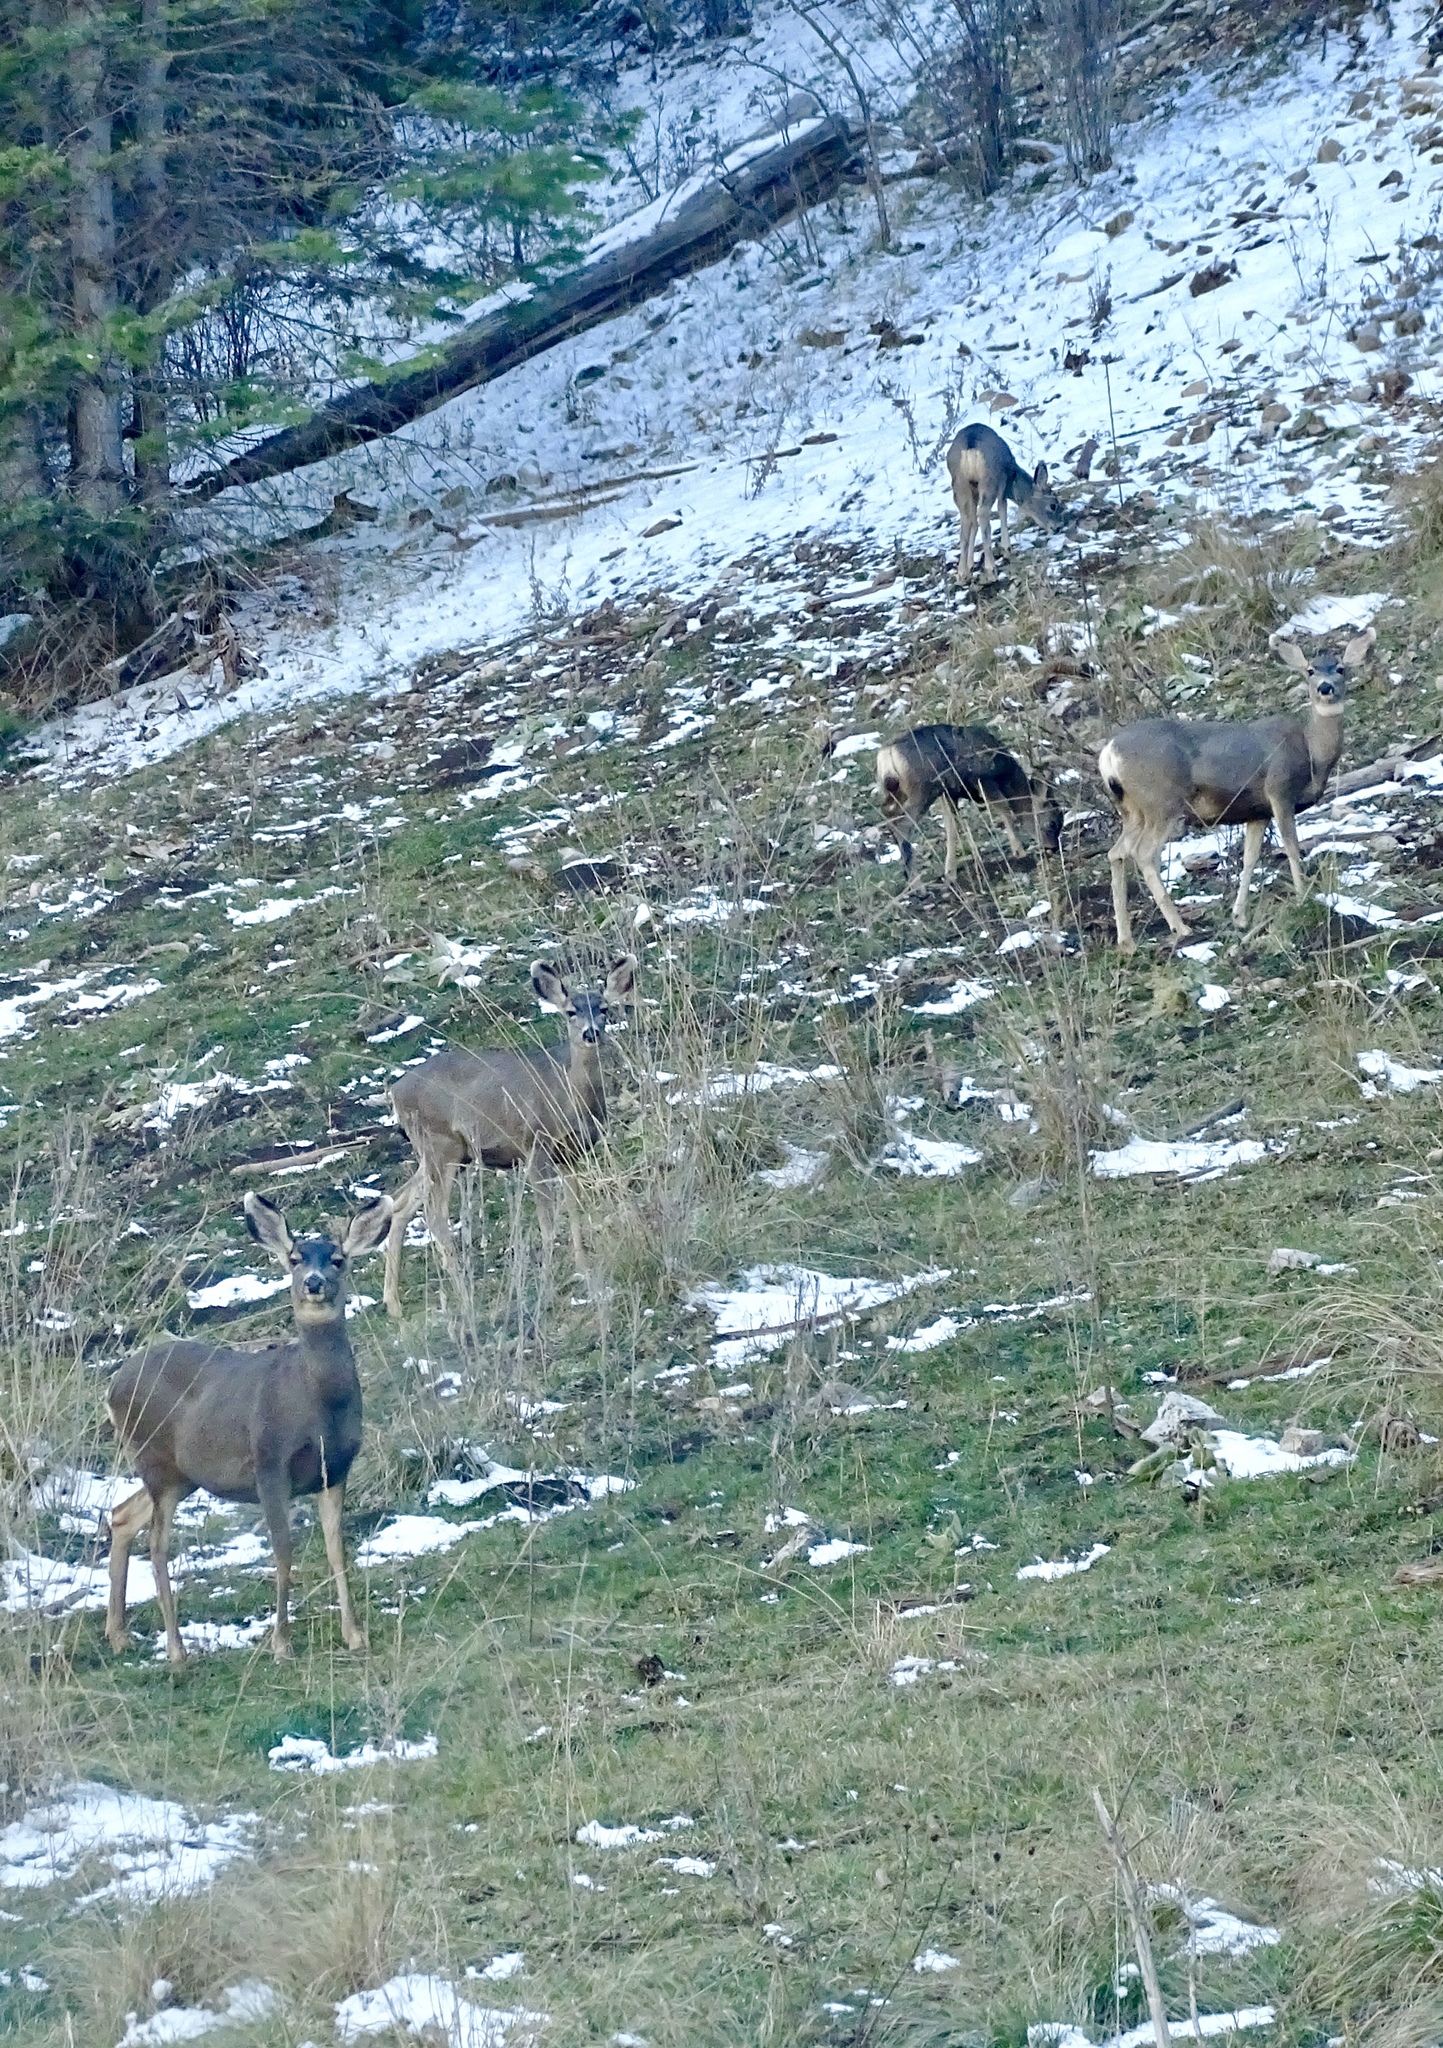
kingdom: Animalia
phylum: Chordata
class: Mammalia
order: Artiodactyla
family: Cervidae
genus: Odocoileus
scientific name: Odocoileus hemionus
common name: Mule deer
